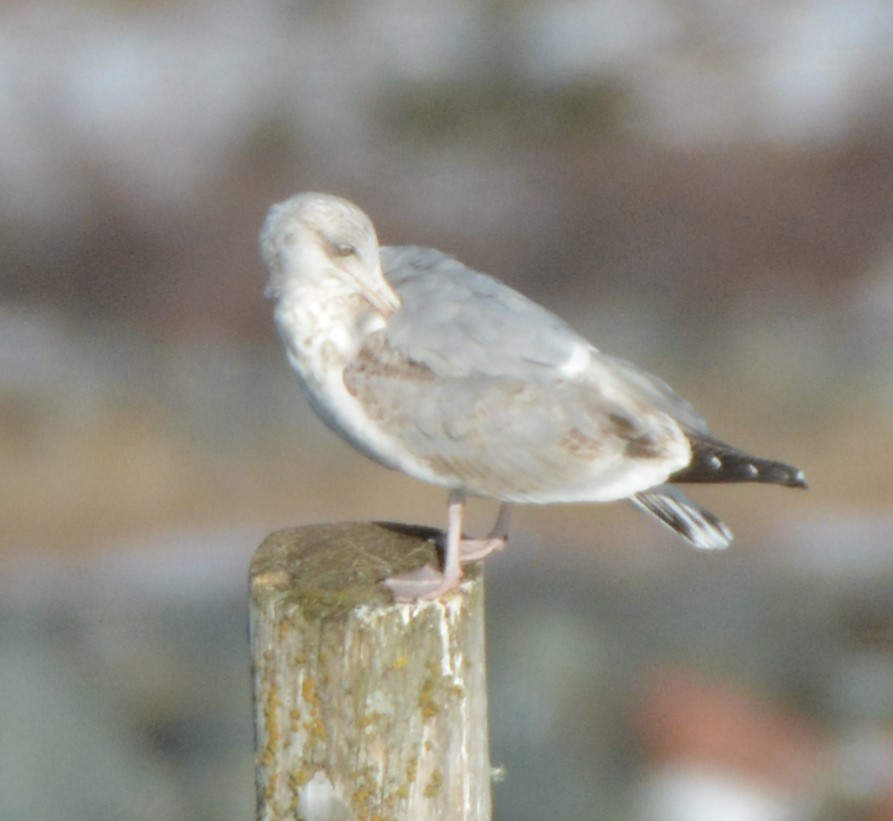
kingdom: Animalia
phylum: Chordata
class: Aves
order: Charadriiformes
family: Laridae
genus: Larus
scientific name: Larus argentatus
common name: Herring gull
